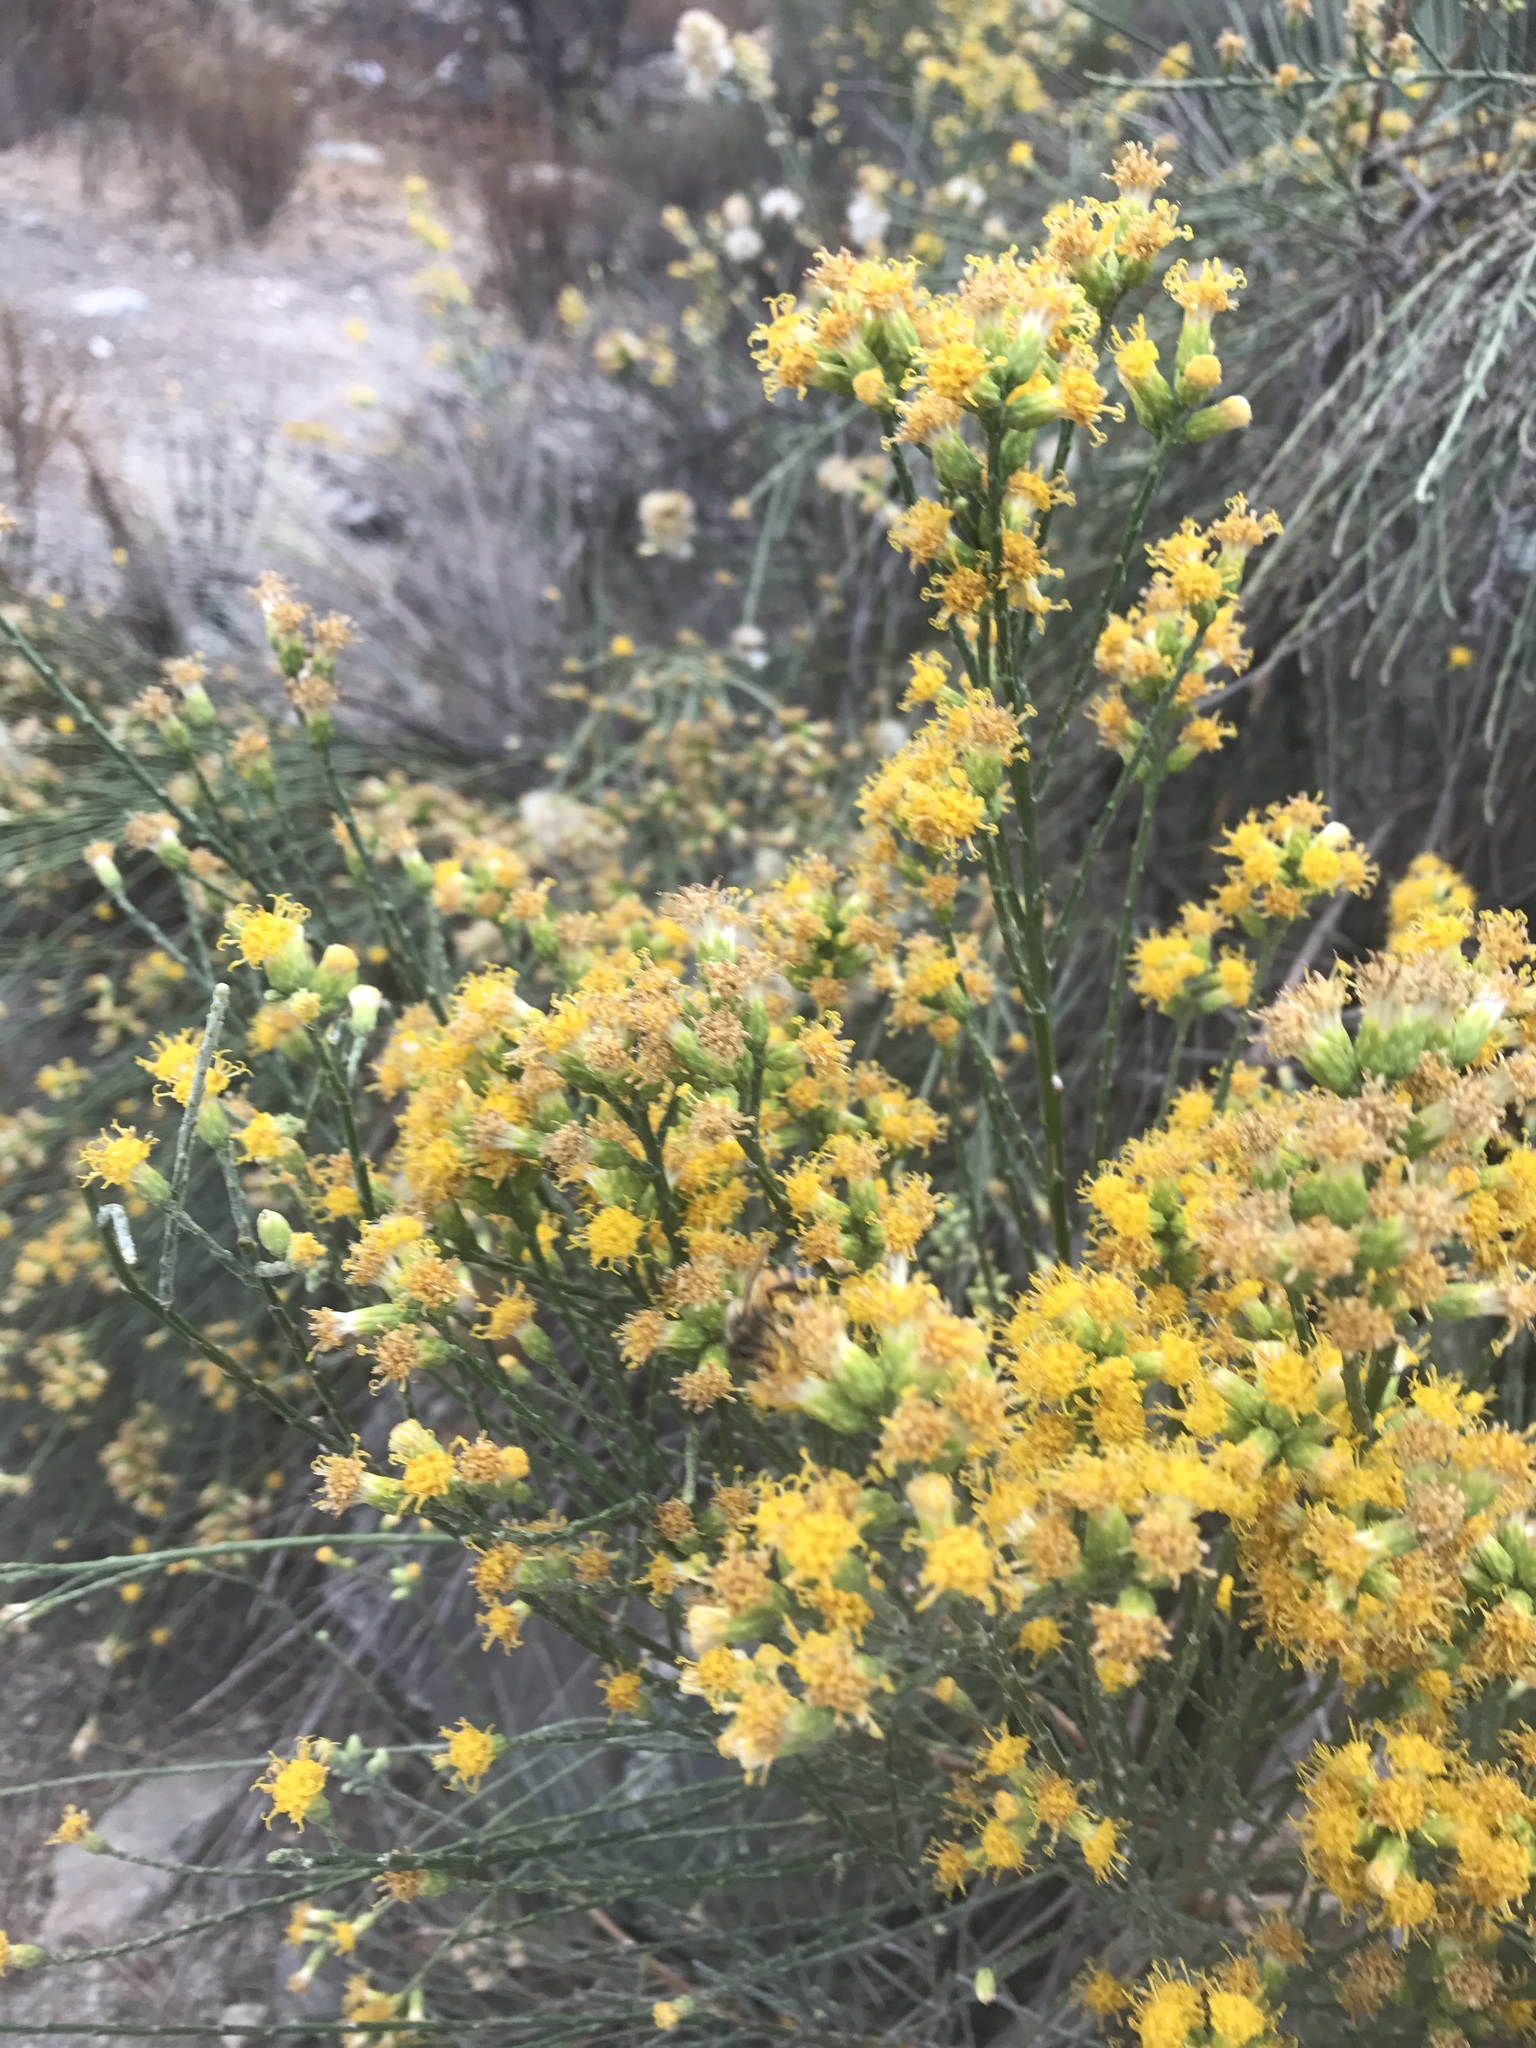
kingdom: Plantae
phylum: Tracheophyta
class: Magnoliopsida
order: Asterales
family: Asteraceae
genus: Lepidospartum
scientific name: Lepidospartum squamatum
